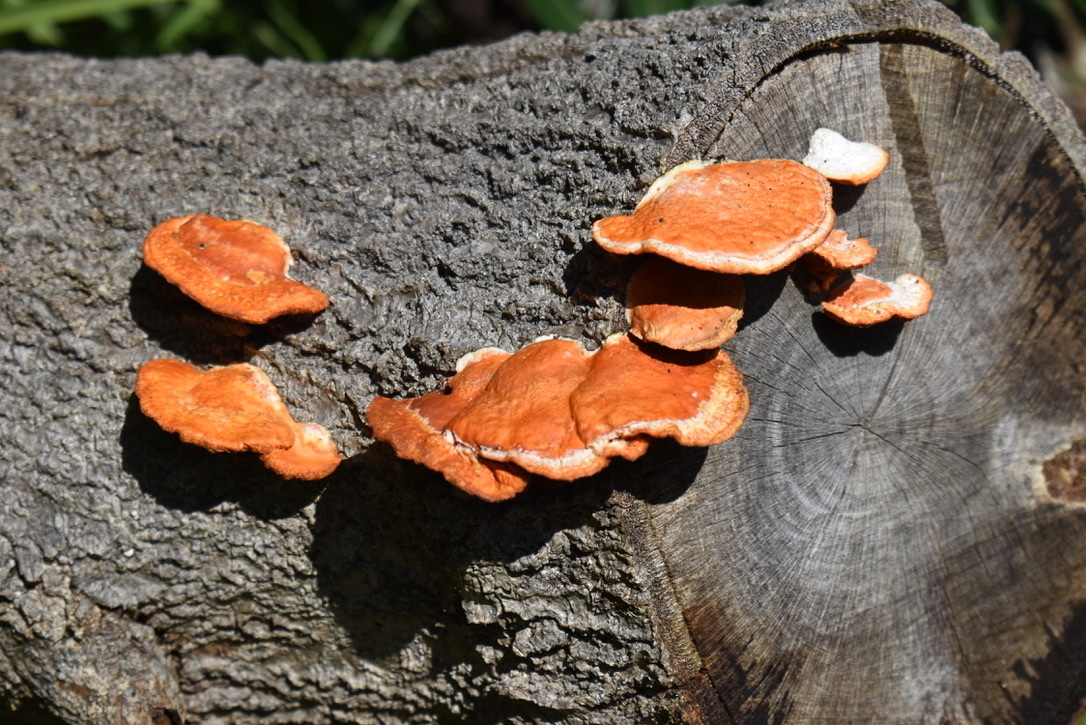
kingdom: Fungi
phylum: Basidiomycota
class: Agaricomycetes
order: Polyporales
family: Polyporaceae
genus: Trametes
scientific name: Trametes coccinea
